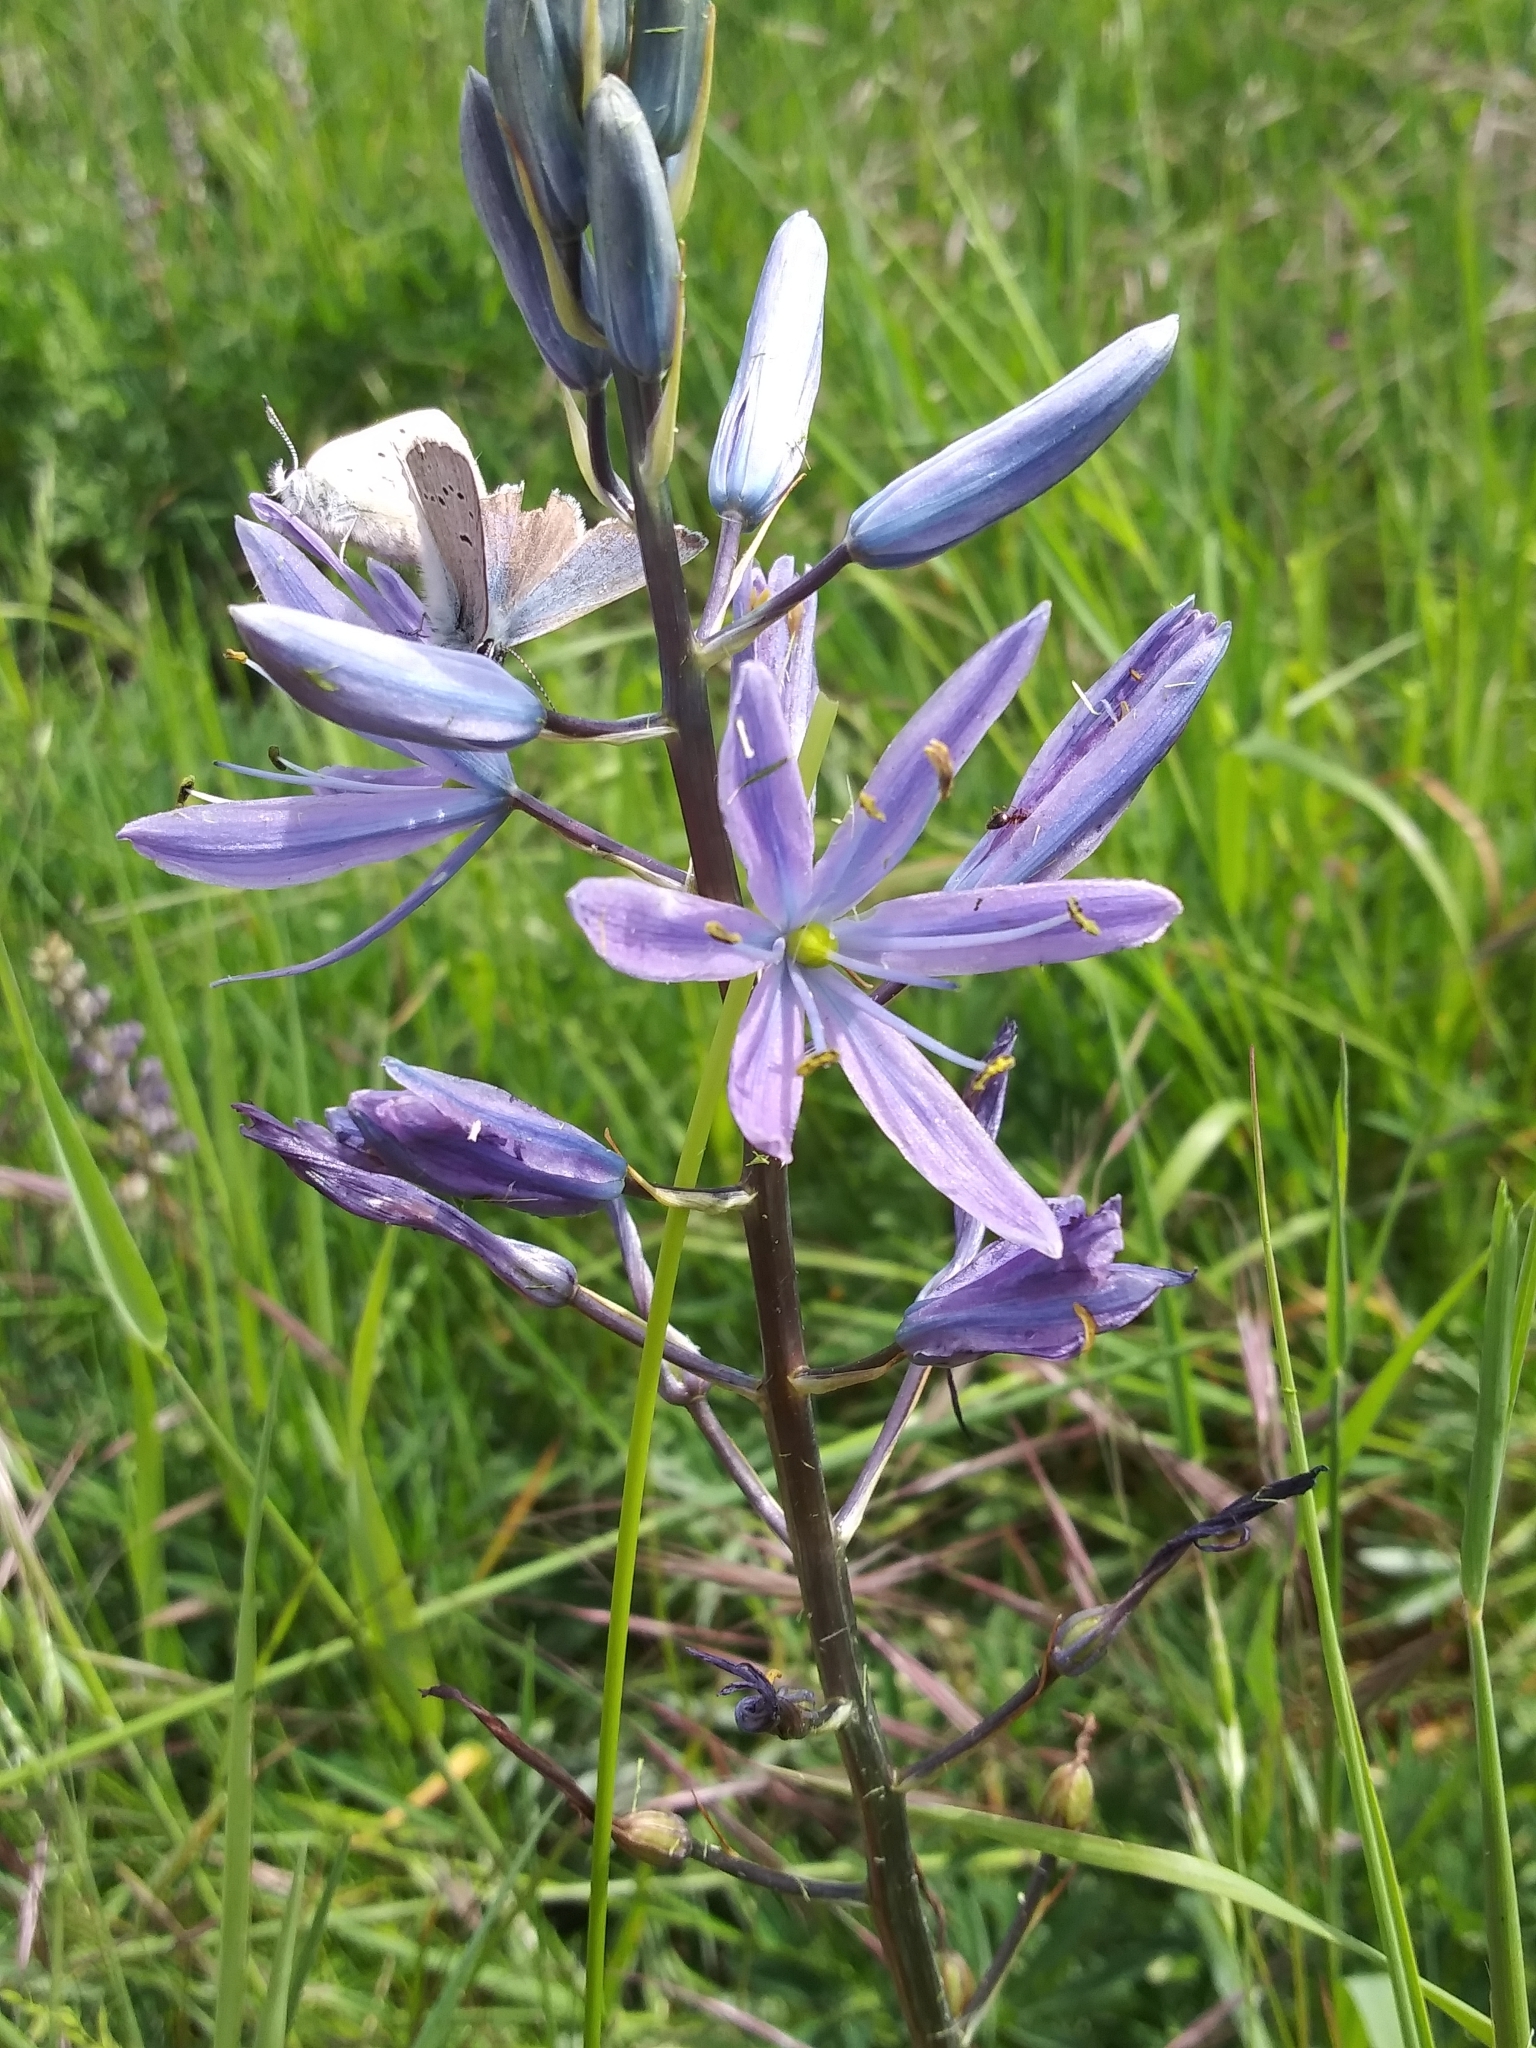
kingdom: Plantae
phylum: Tracheophyta
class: Liliopsida
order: Asparagales
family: Asparagaceae
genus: Camassia
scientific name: Camassia leichtlinii
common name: Leichtlin's camas
